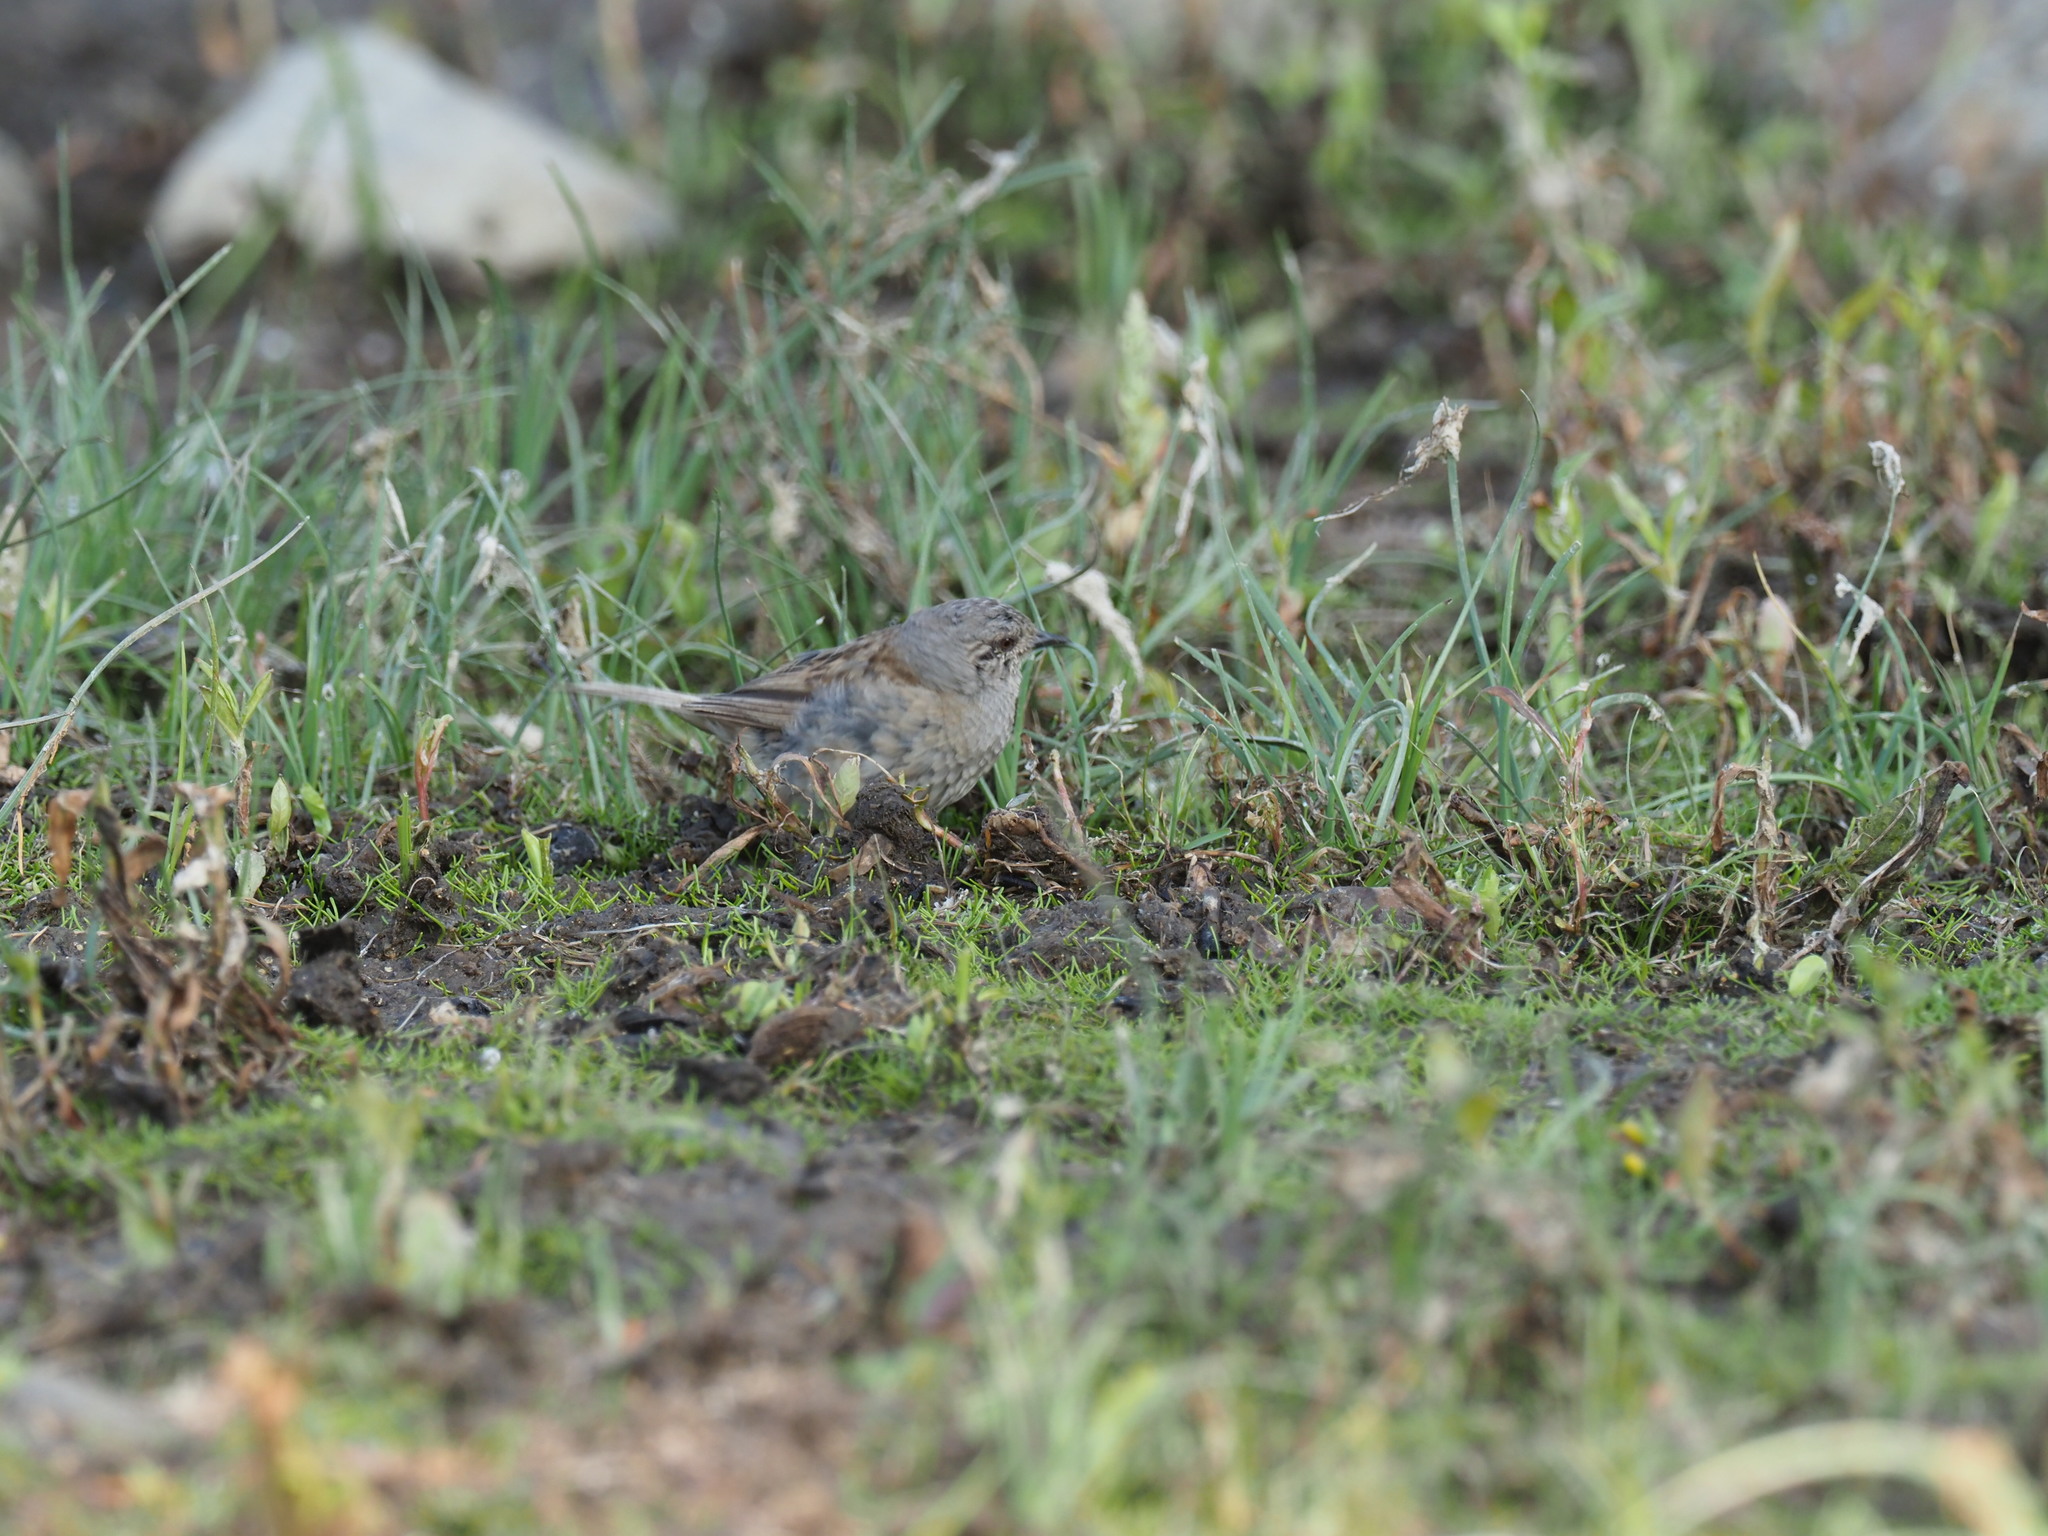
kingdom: Animalia
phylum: Chordata
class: Aves
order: Passeriformes
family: Prunellidae
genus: Prunella
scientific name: Prunella modularis
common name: Dunnock
